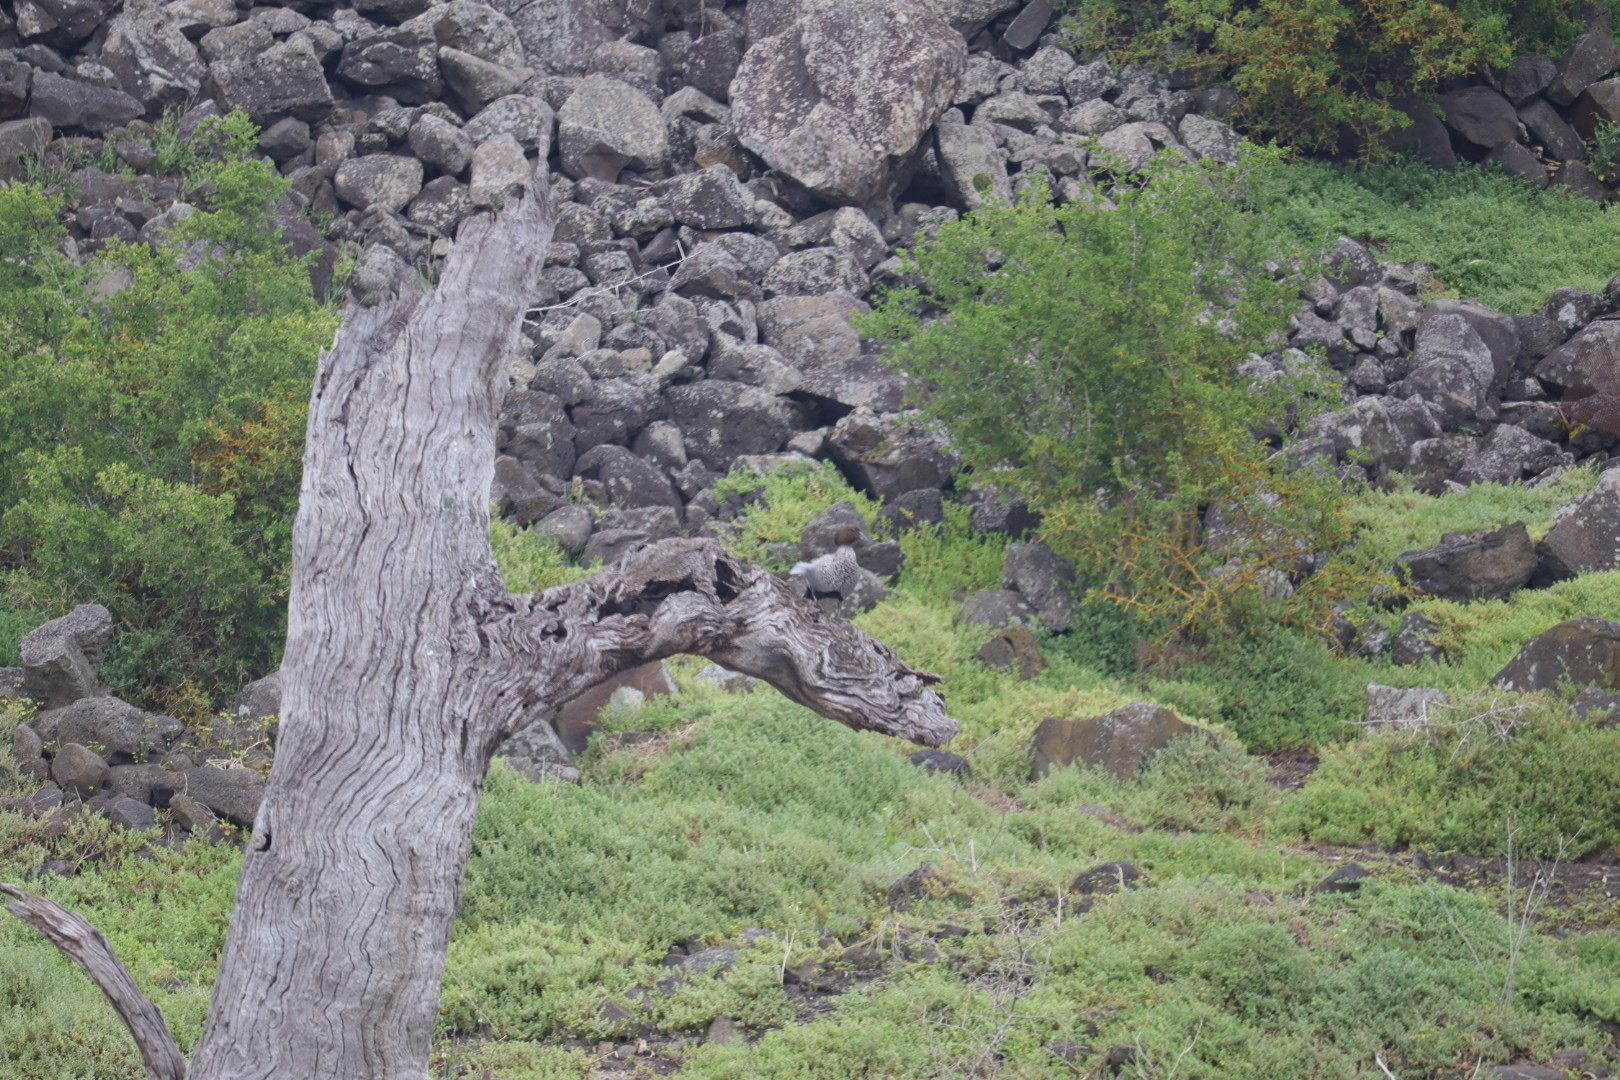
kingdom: Animalia
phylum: Chordata
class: Aves
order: Anseriformes
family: Anatidae
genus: Chenonetta
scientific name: Chenonetta jubata
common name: Maned duck
